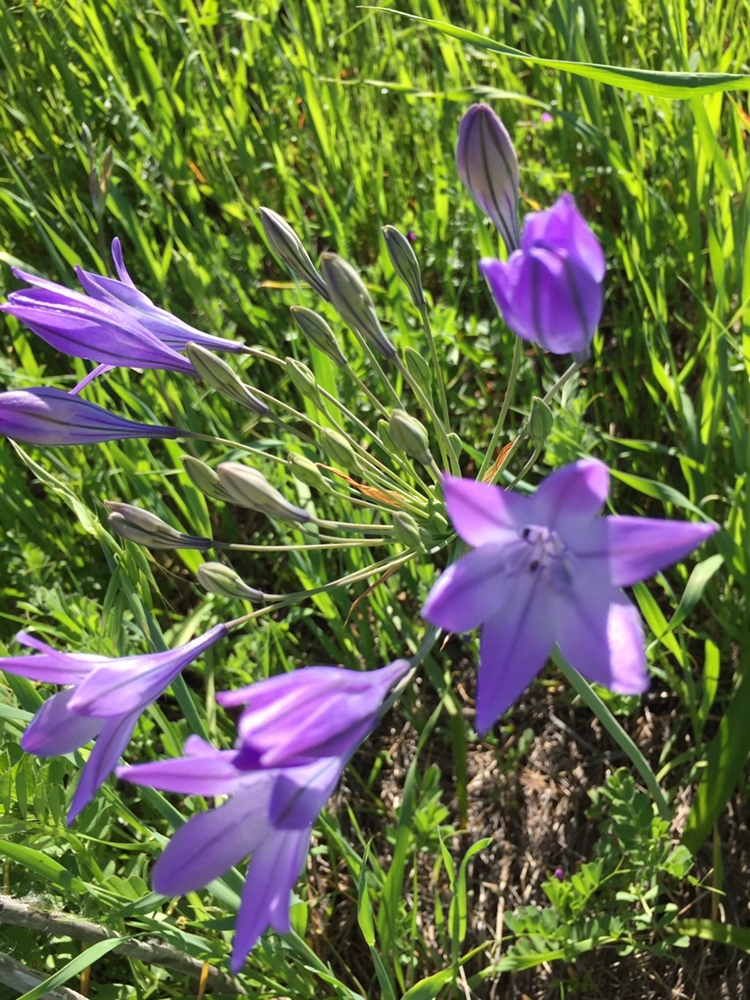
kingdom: Plantae
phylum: Tracheophyta
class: Liliopsida
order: Asparagales
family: Asparagaceae
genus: Triteleia
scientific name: Triteleia laxa
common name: Triplet-lily
